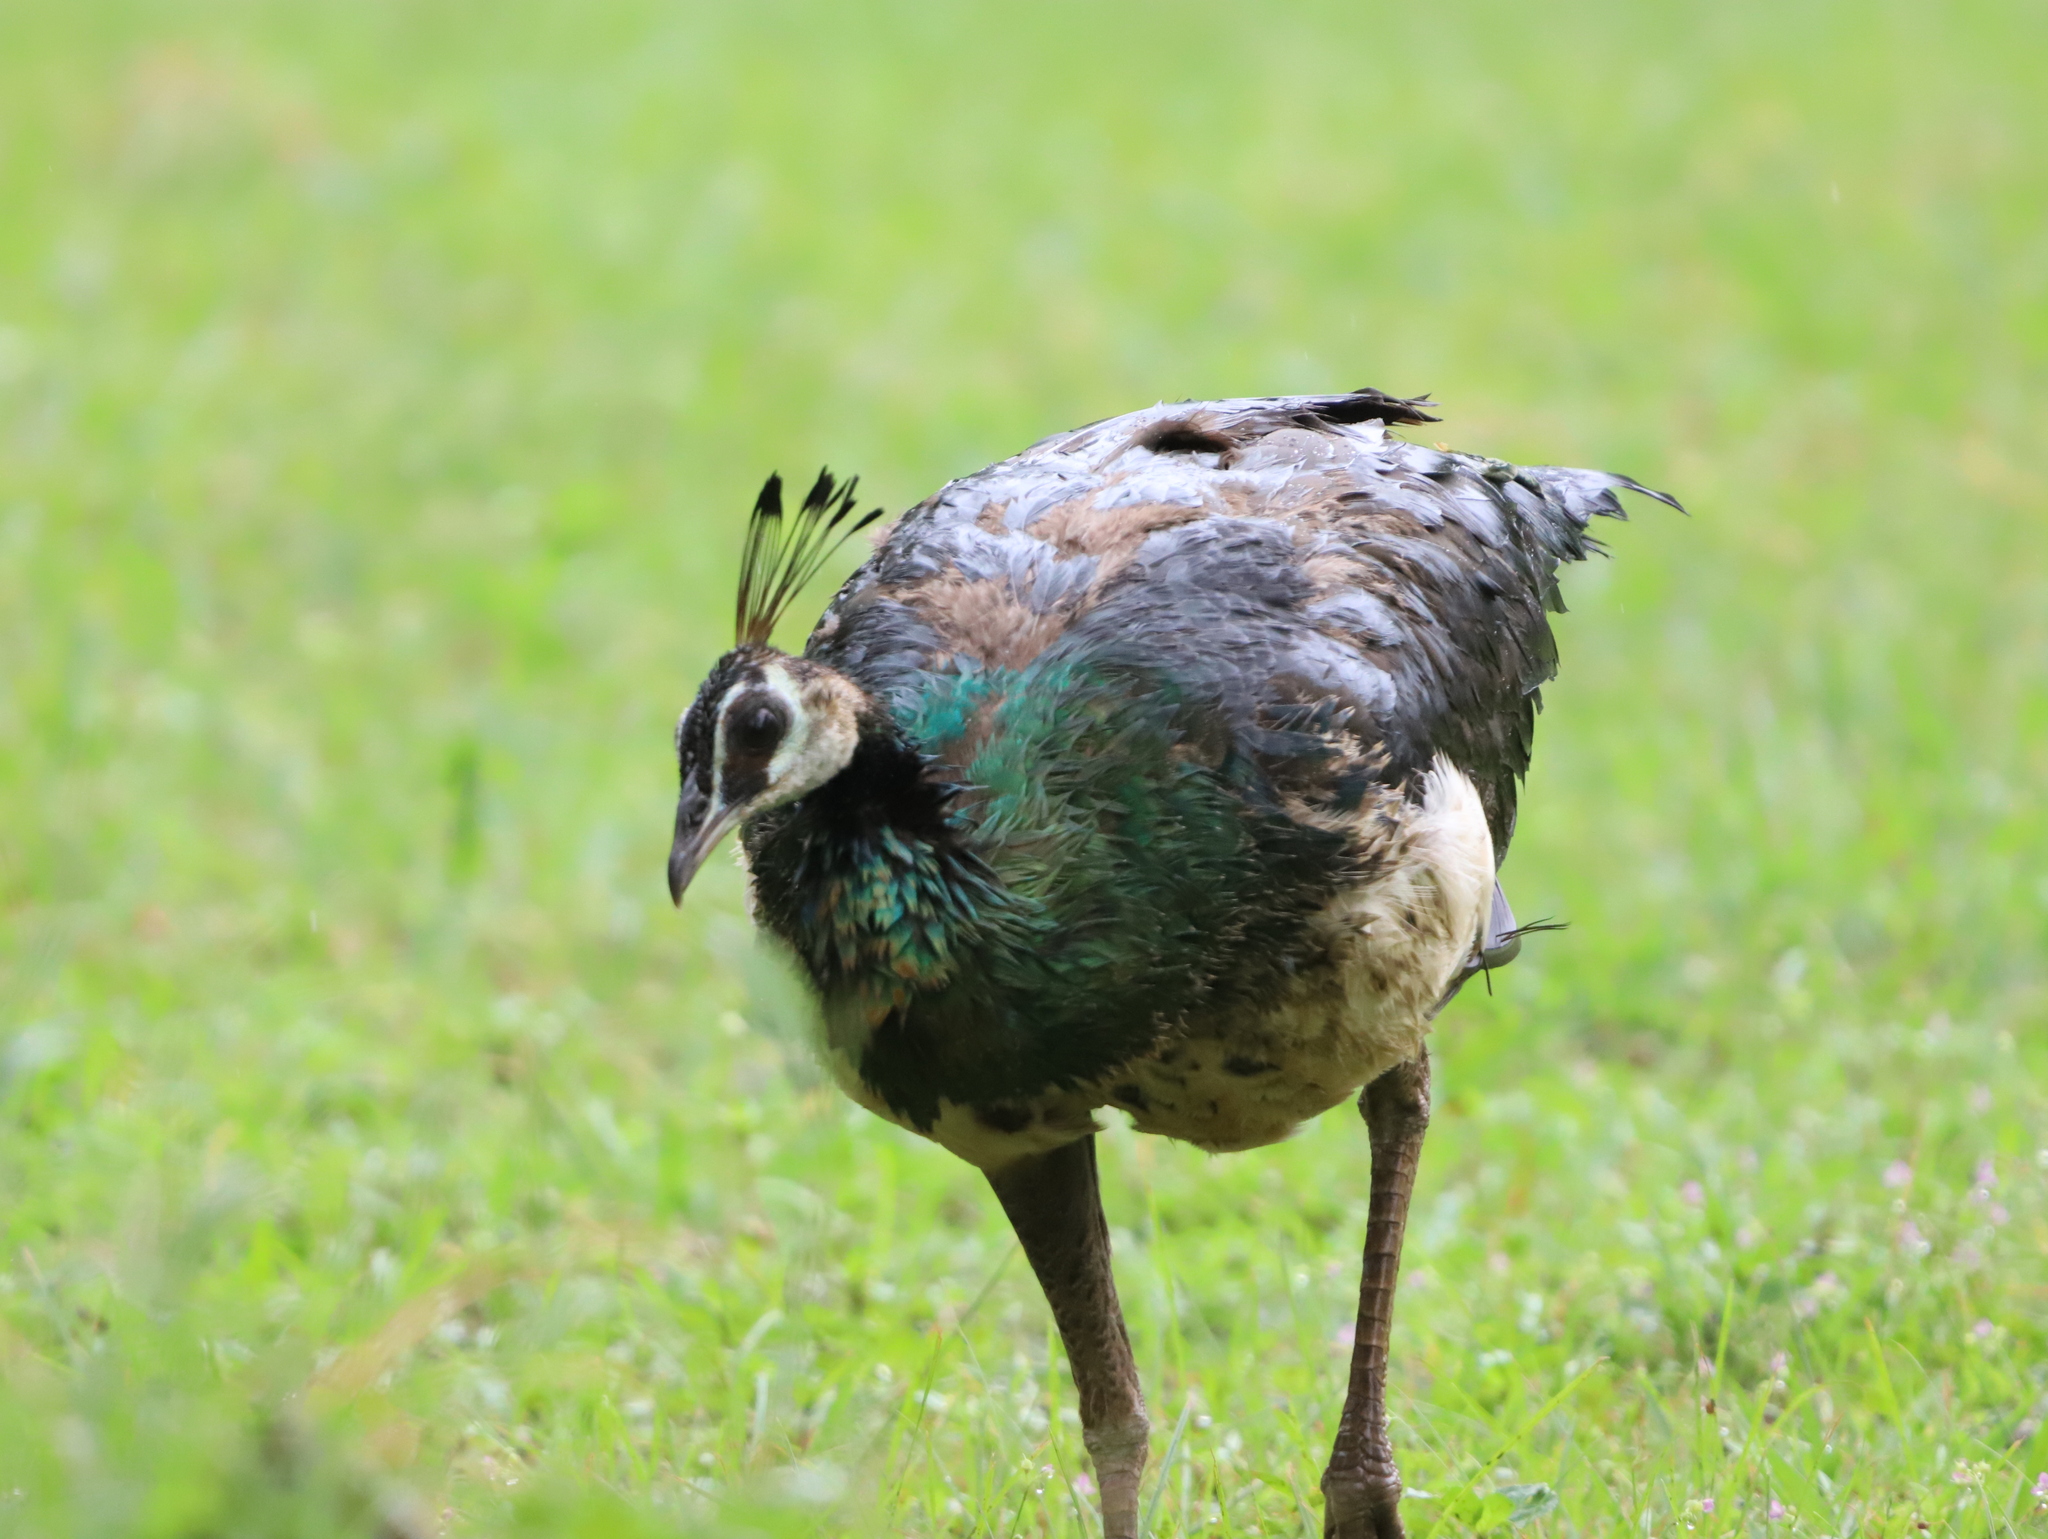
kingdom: Animalia
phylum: Chordata
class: Aves
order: Galliformes
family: Phasianidae
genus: Pavo
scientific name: Pavo cristatus
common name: Indian peafowl
